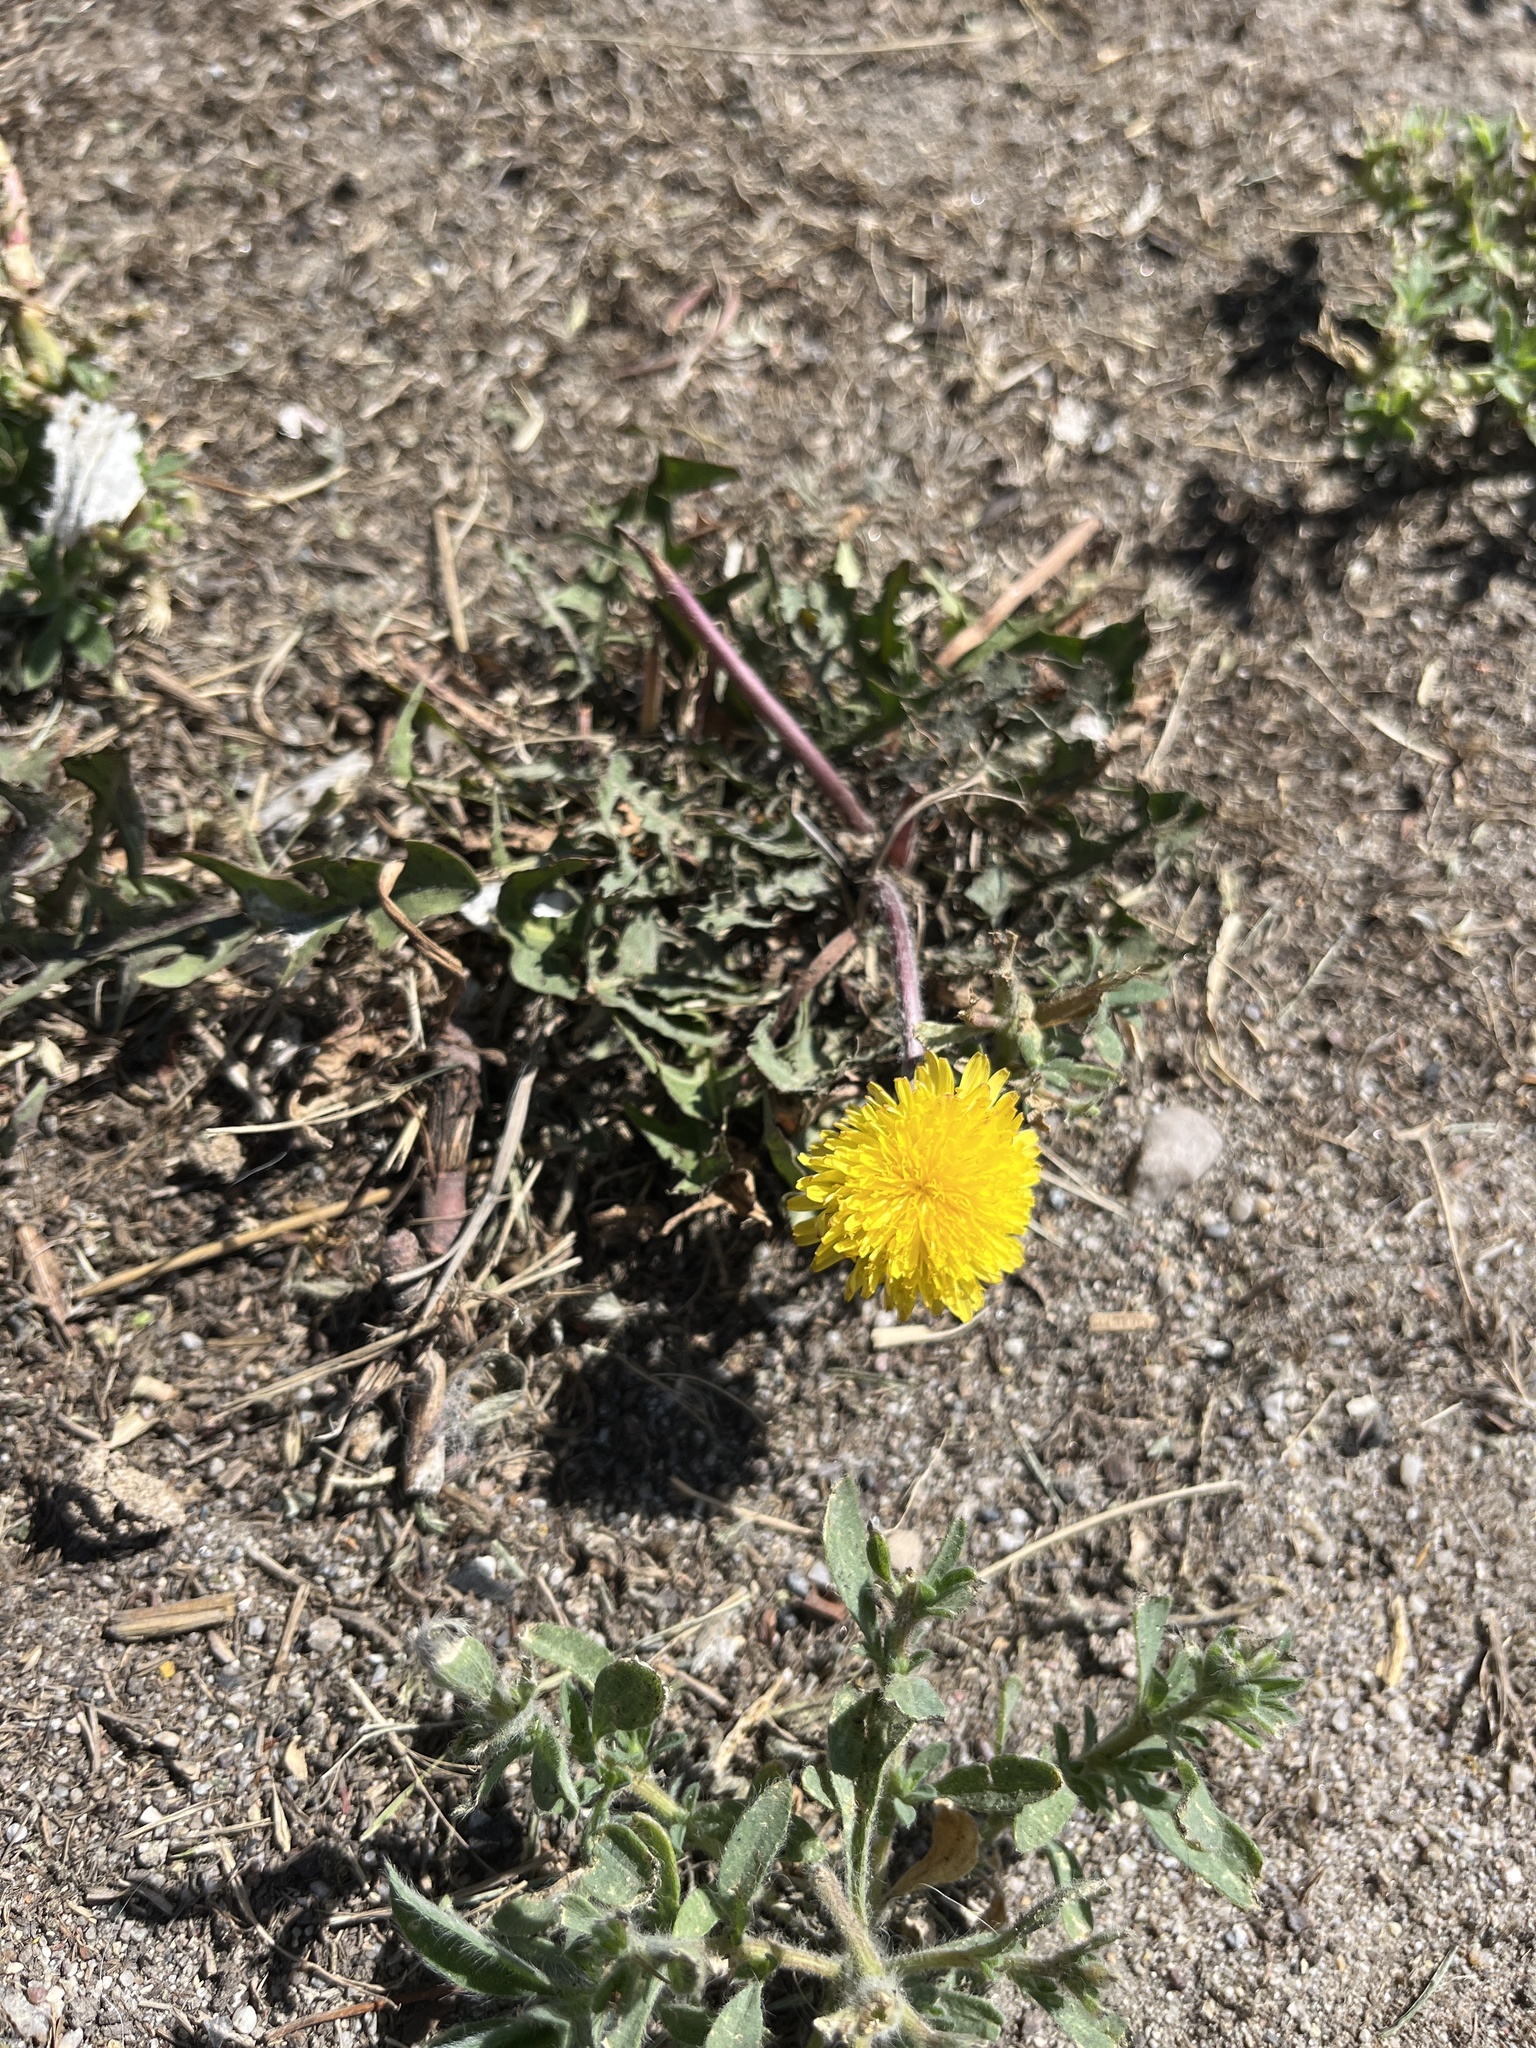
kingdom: Plantae
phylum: Tracheophyta
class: Magnoliopsida
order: Asterales
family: Asteraceae
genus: Taraxacum
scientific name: Taraxacum officinale
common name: Common dandelion
